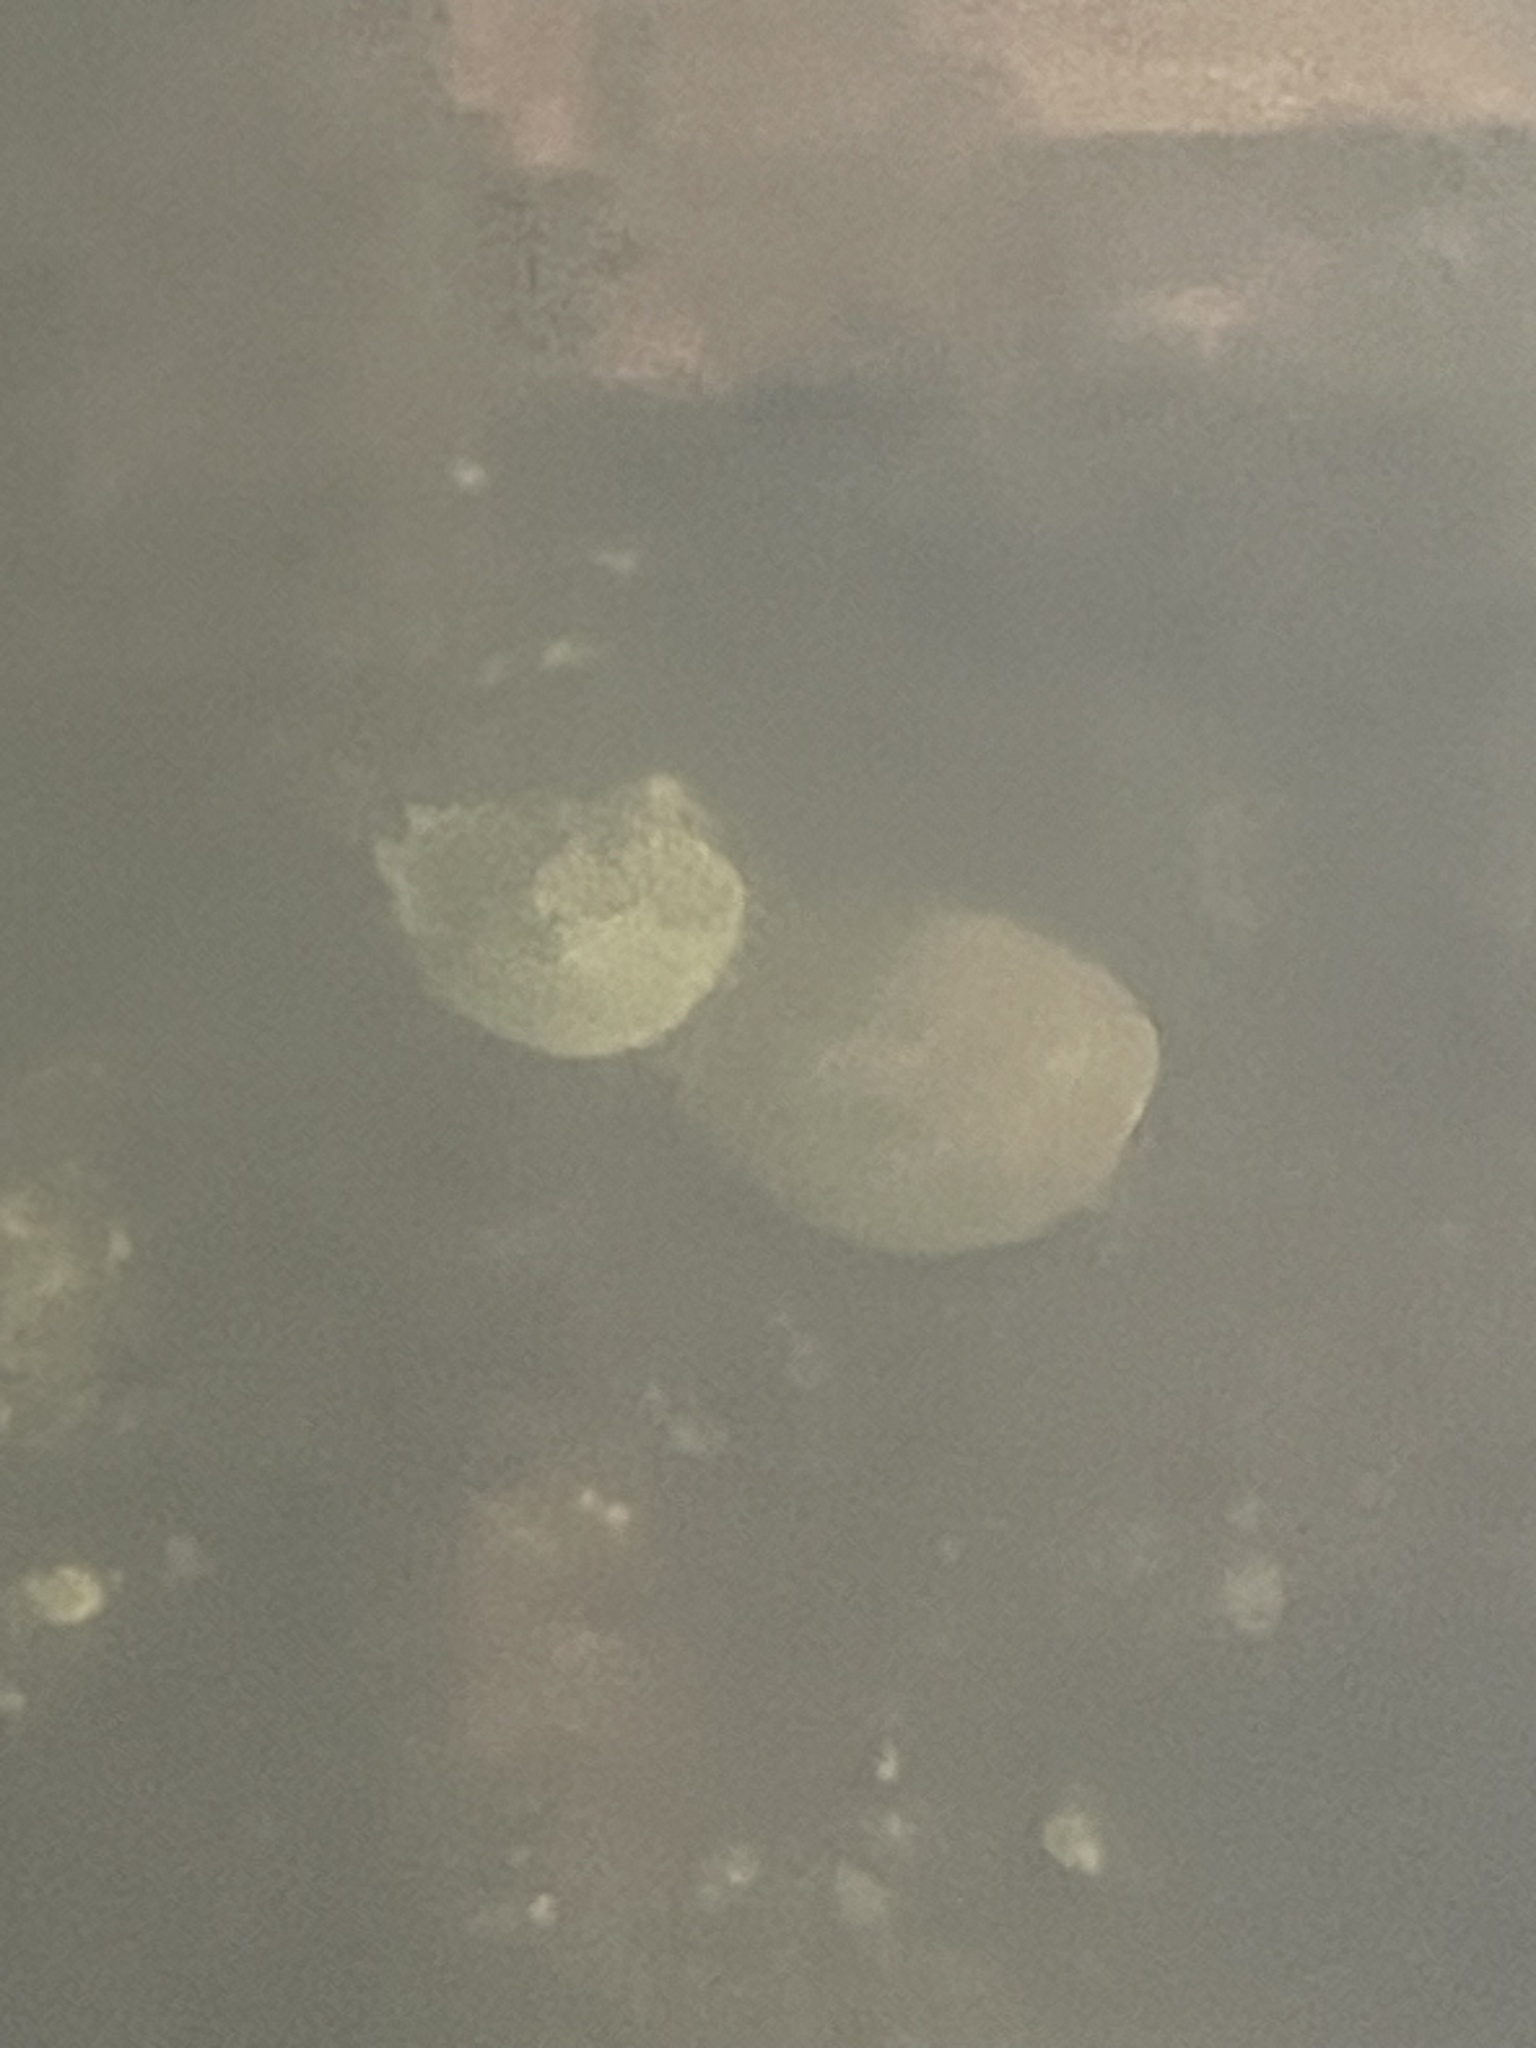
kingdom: Animalia
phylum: Arthropoda
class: Merostomata
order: Xiphosurida
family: Limulidae
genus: Limulus
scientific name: Limulus polyphemus
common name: Horseshoe crab
